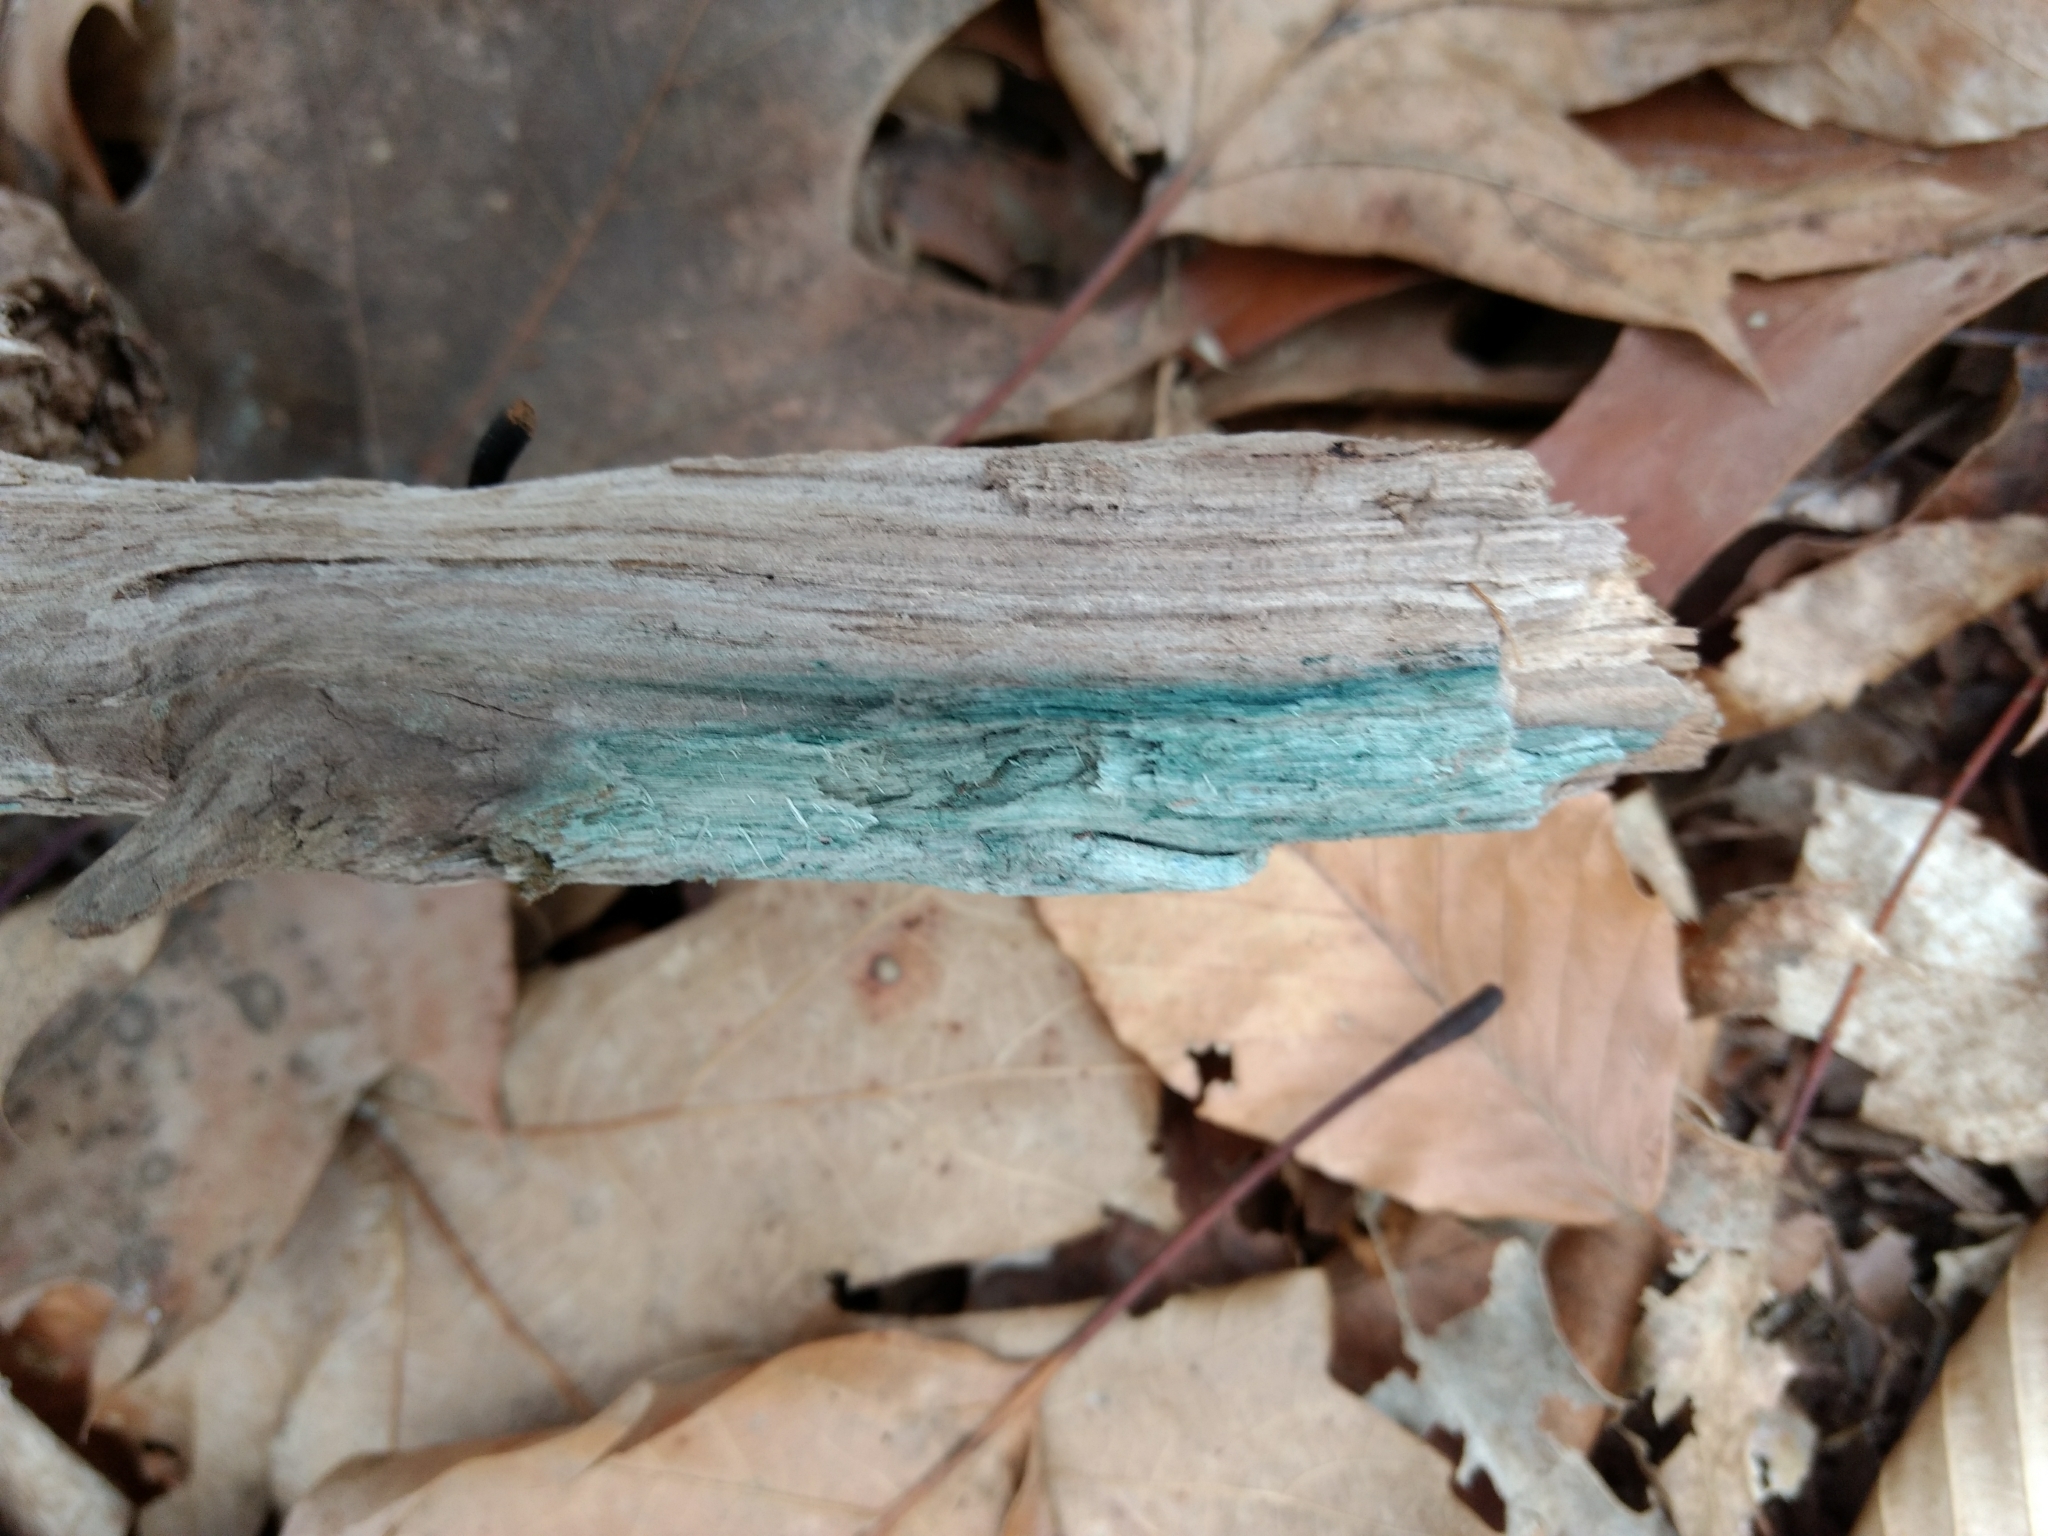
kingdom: Fungi
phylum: Ascomycota
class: Leotiomycetes
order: Helotiales
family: Chlorociboriaceae
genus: Chlorociboria
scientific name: Chlorociboria
